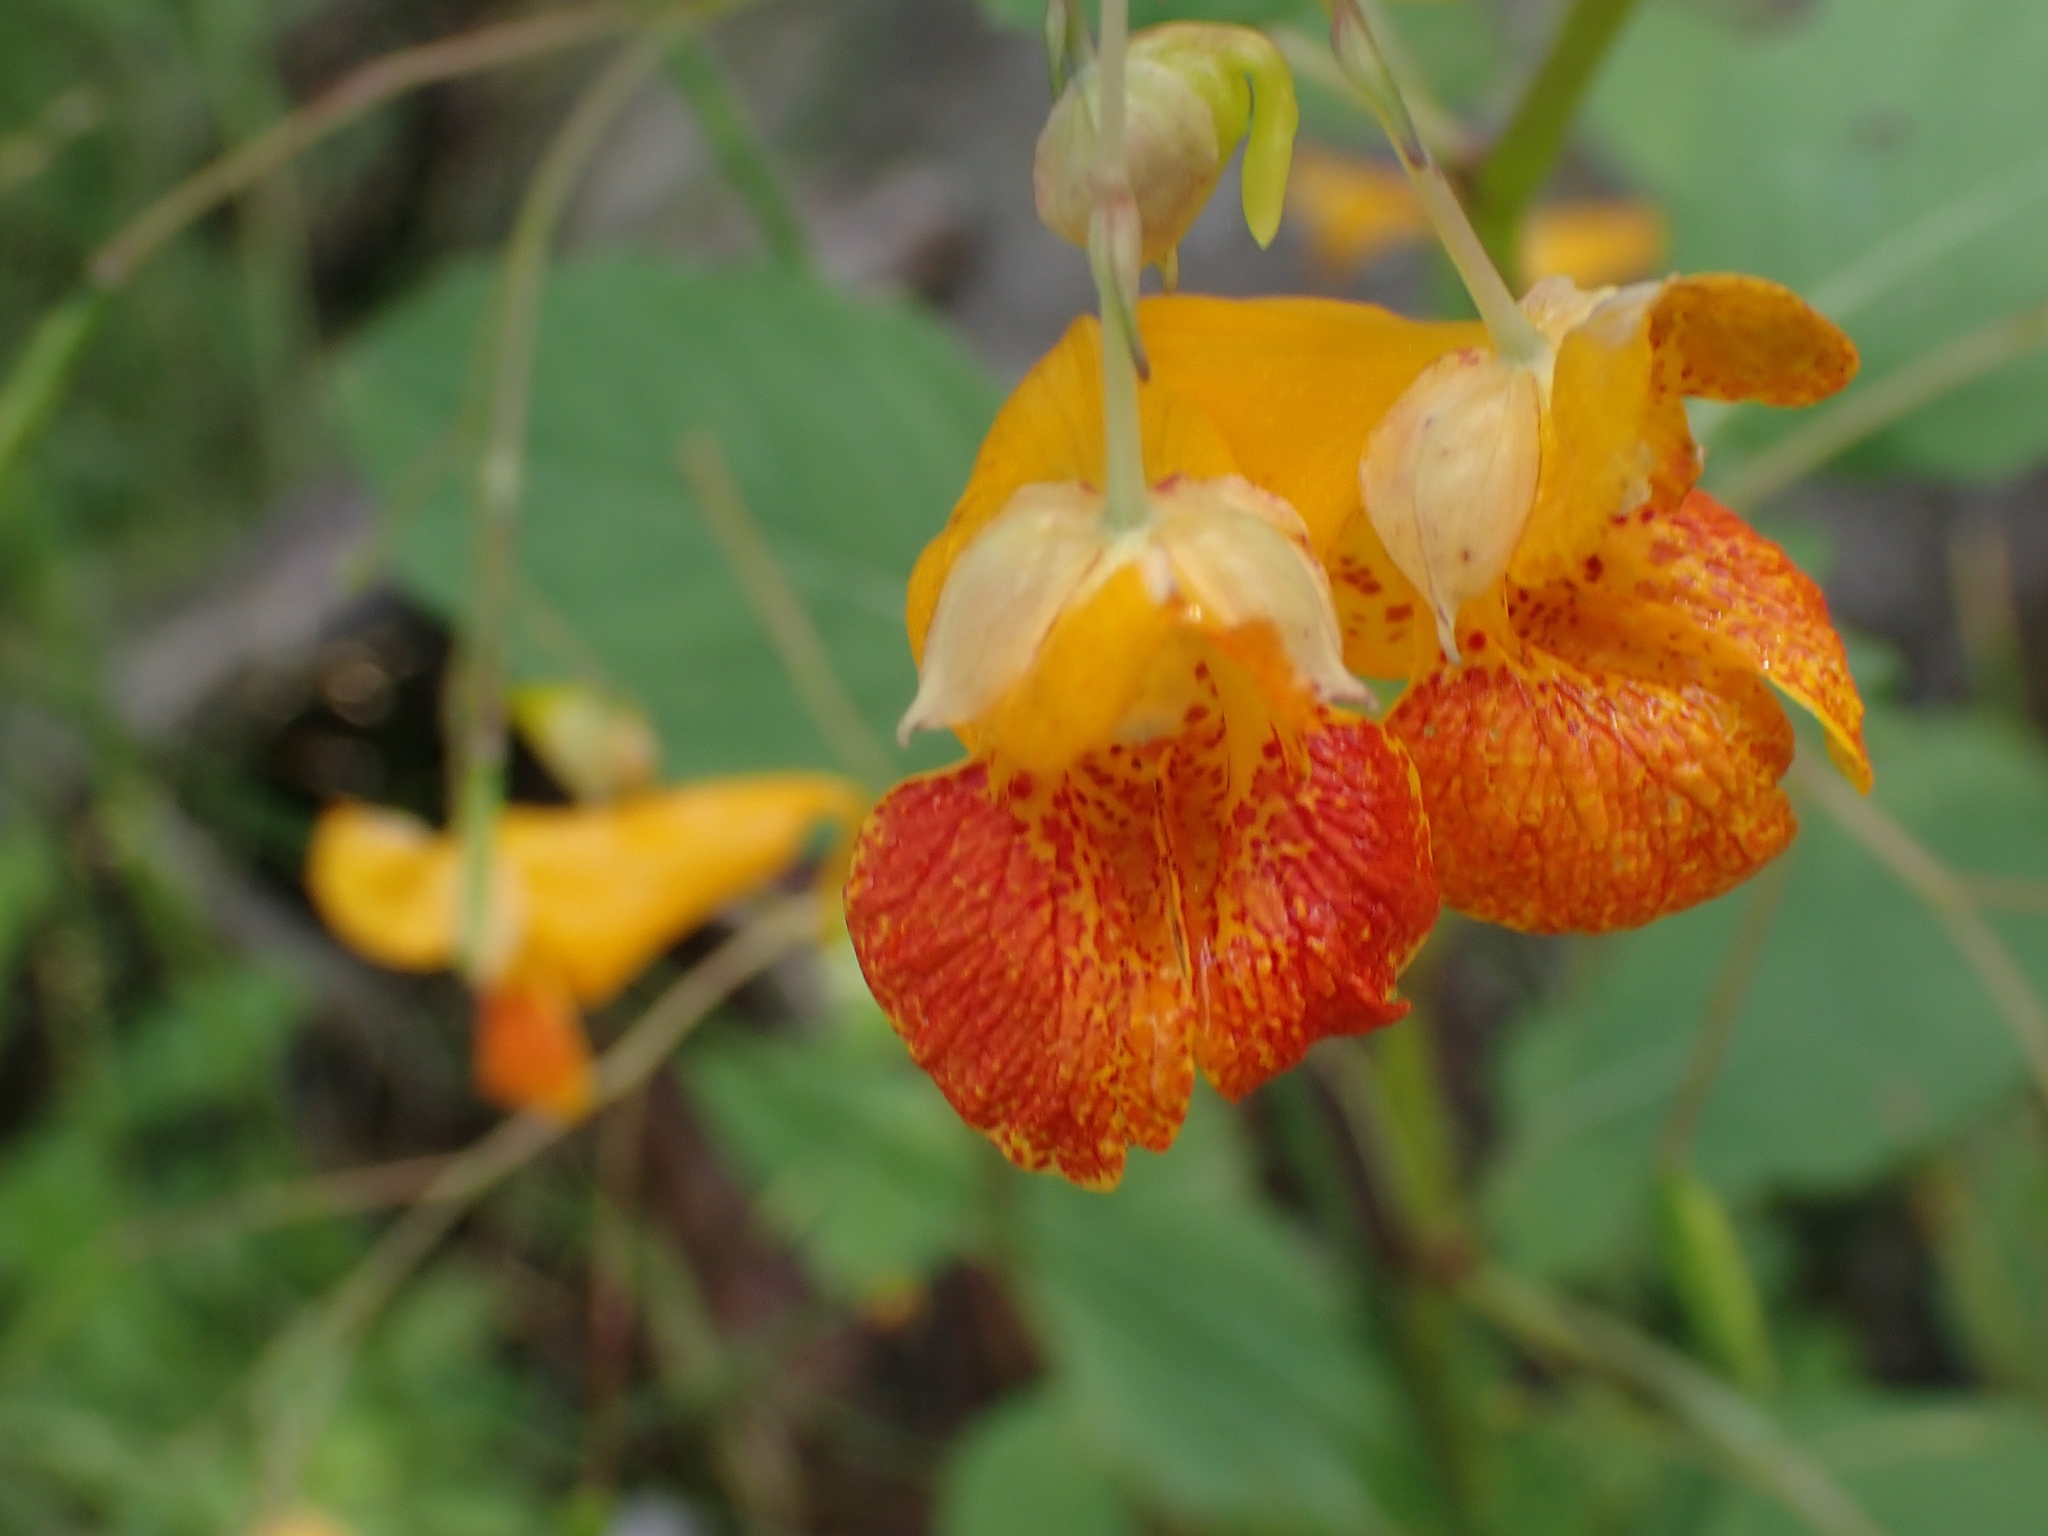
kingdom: Plantae
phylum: Tracheophyta
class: Magnoliopsida
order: Ericales
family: Balsaminaceae
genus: Impatiens
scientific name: Impatiens capensis
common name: Orange balsam
